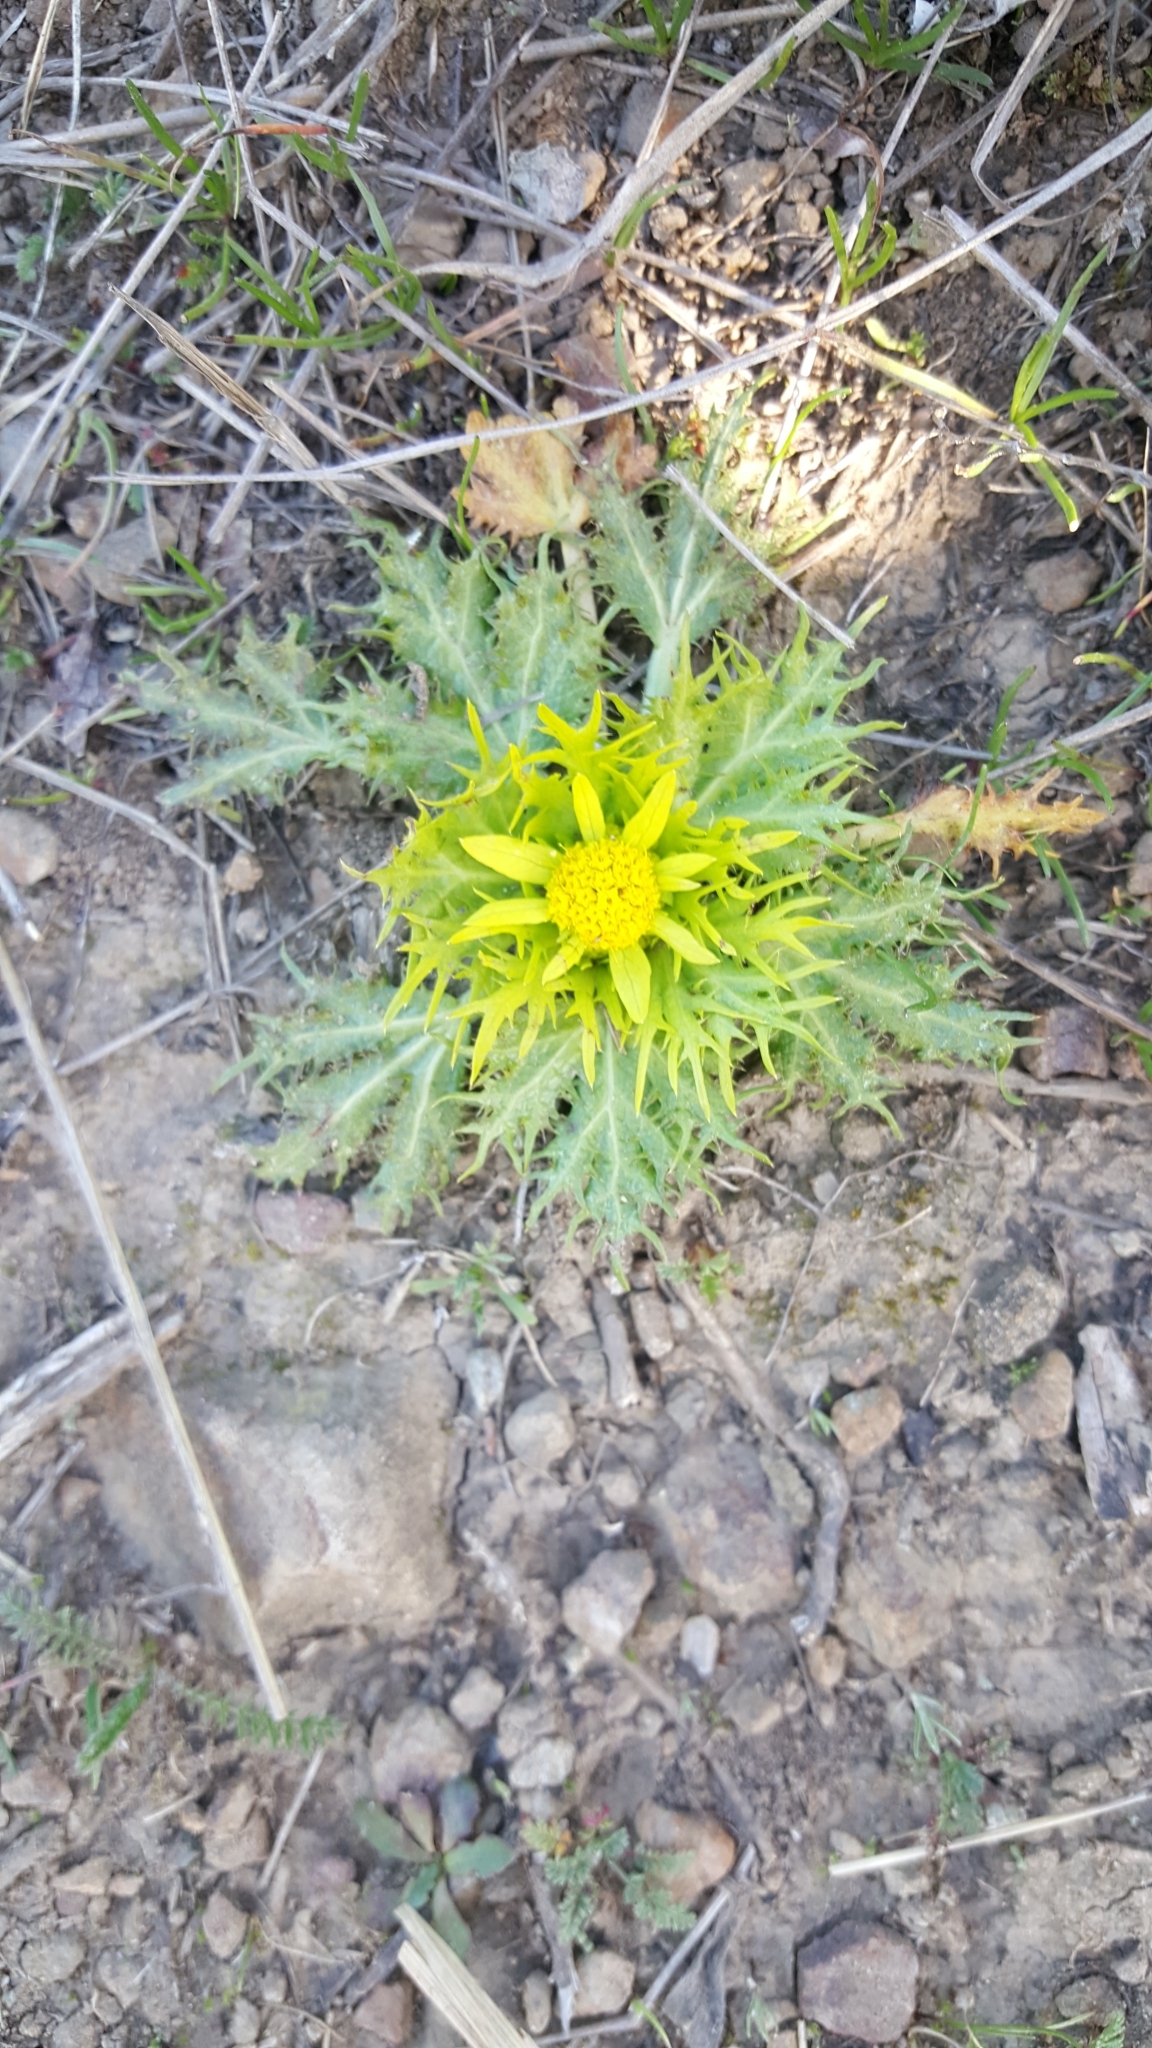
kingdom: Plantae
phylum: Tracheophyta
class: Magnoliopsida
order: Apiales
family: Apiaceae
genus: Sanicula
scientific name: Sanicula arctopoides
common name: Footsteps-of-spring
